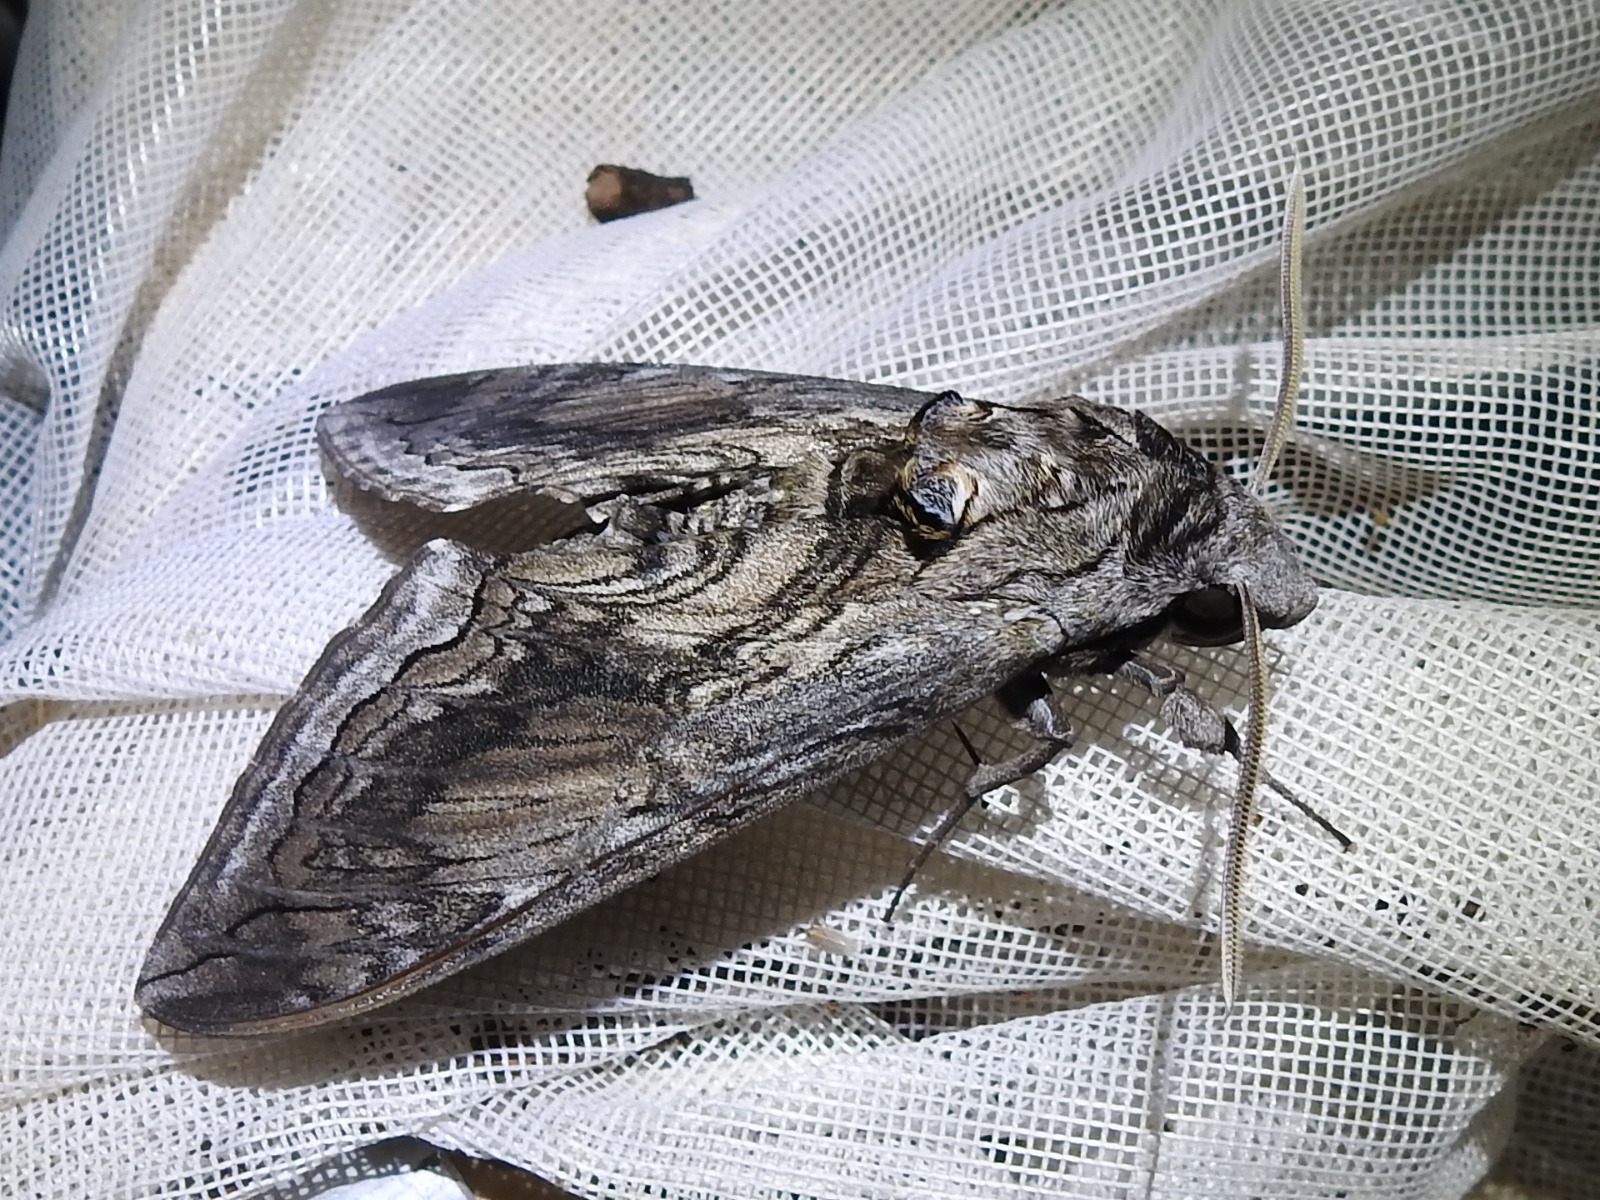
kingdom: Animalia
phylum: Arthropoda
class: Insecta
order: Lepidoptera
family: Sphingidae
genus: Manduca
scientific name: Manduca quinquemaculatus
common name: Five-spotted hawk-moth
